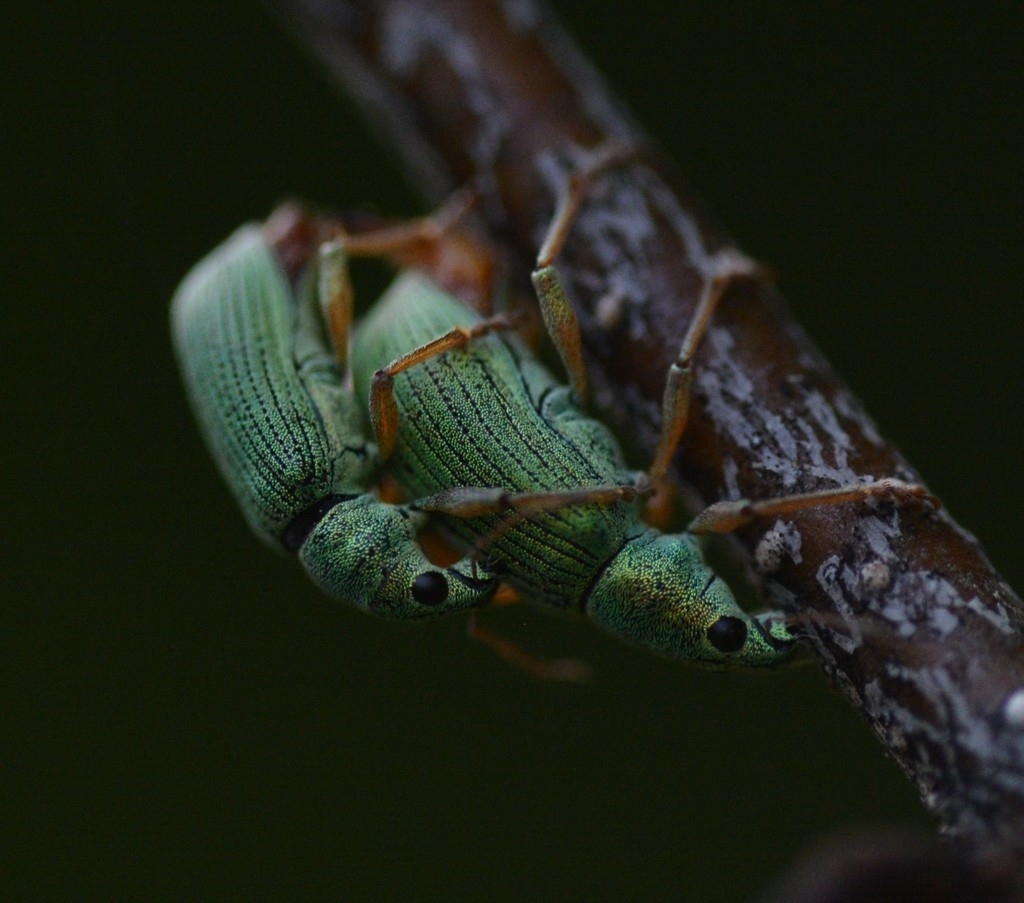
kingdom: Animalia
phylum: Arthropoda
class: Insecta
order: Coleoptera
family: Curculionidae
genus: Polydrusus
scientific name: Polydrusus formosus
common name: Weevil
